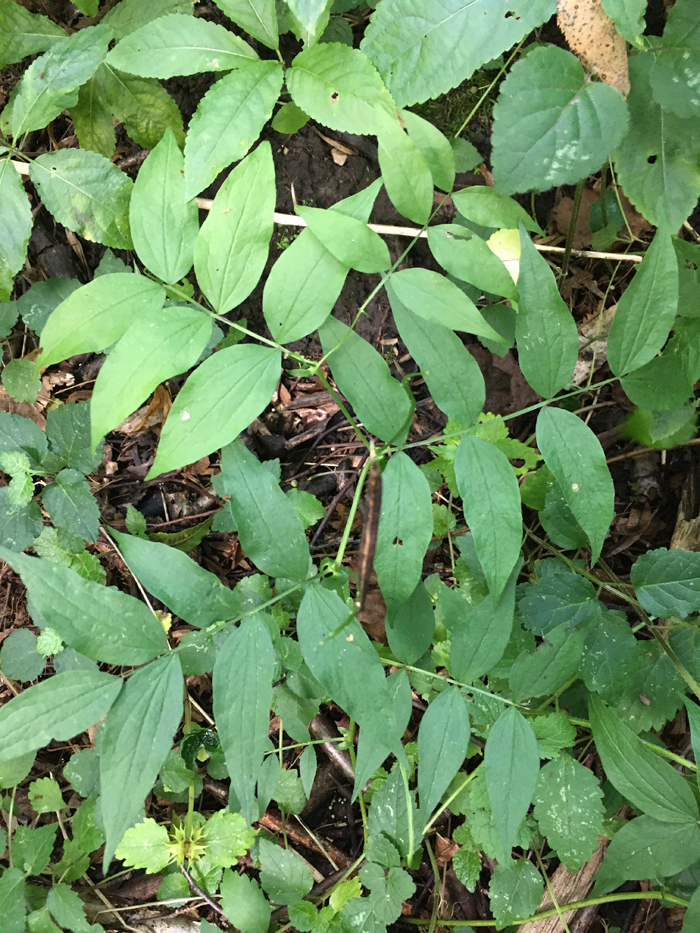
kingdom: Plantae
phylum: Tracheophyta
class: Magnoliopsida
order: Fabales
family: Fabaceae
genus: Lathyrus
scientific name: Lathyrus vernus
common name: Spring pea
